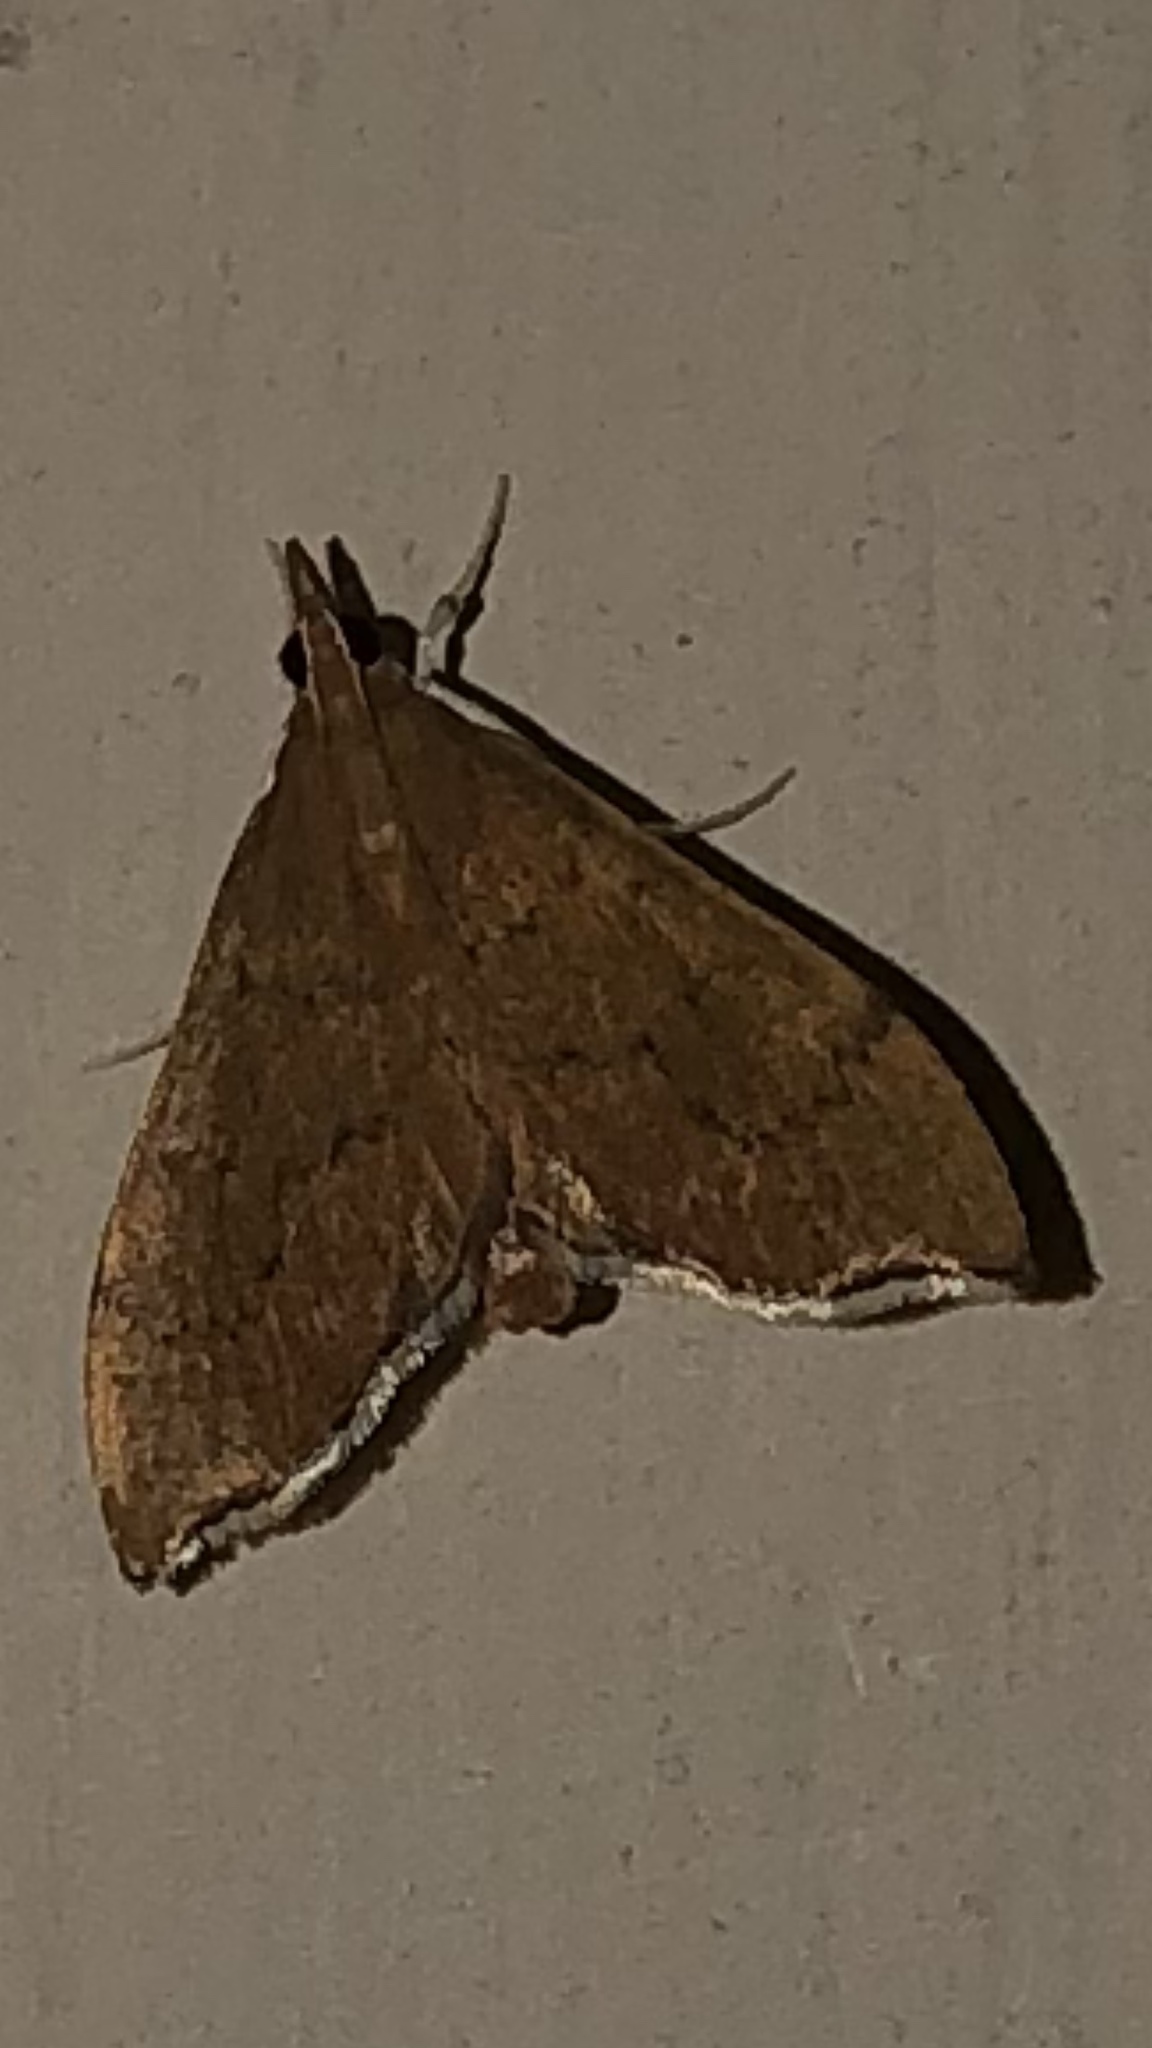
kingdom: Animalia
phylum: Arthropoda
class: Insecta
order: Lepidoptera
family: Crambidae
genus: Sericoplaga
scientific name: Sericoplaga externalis
